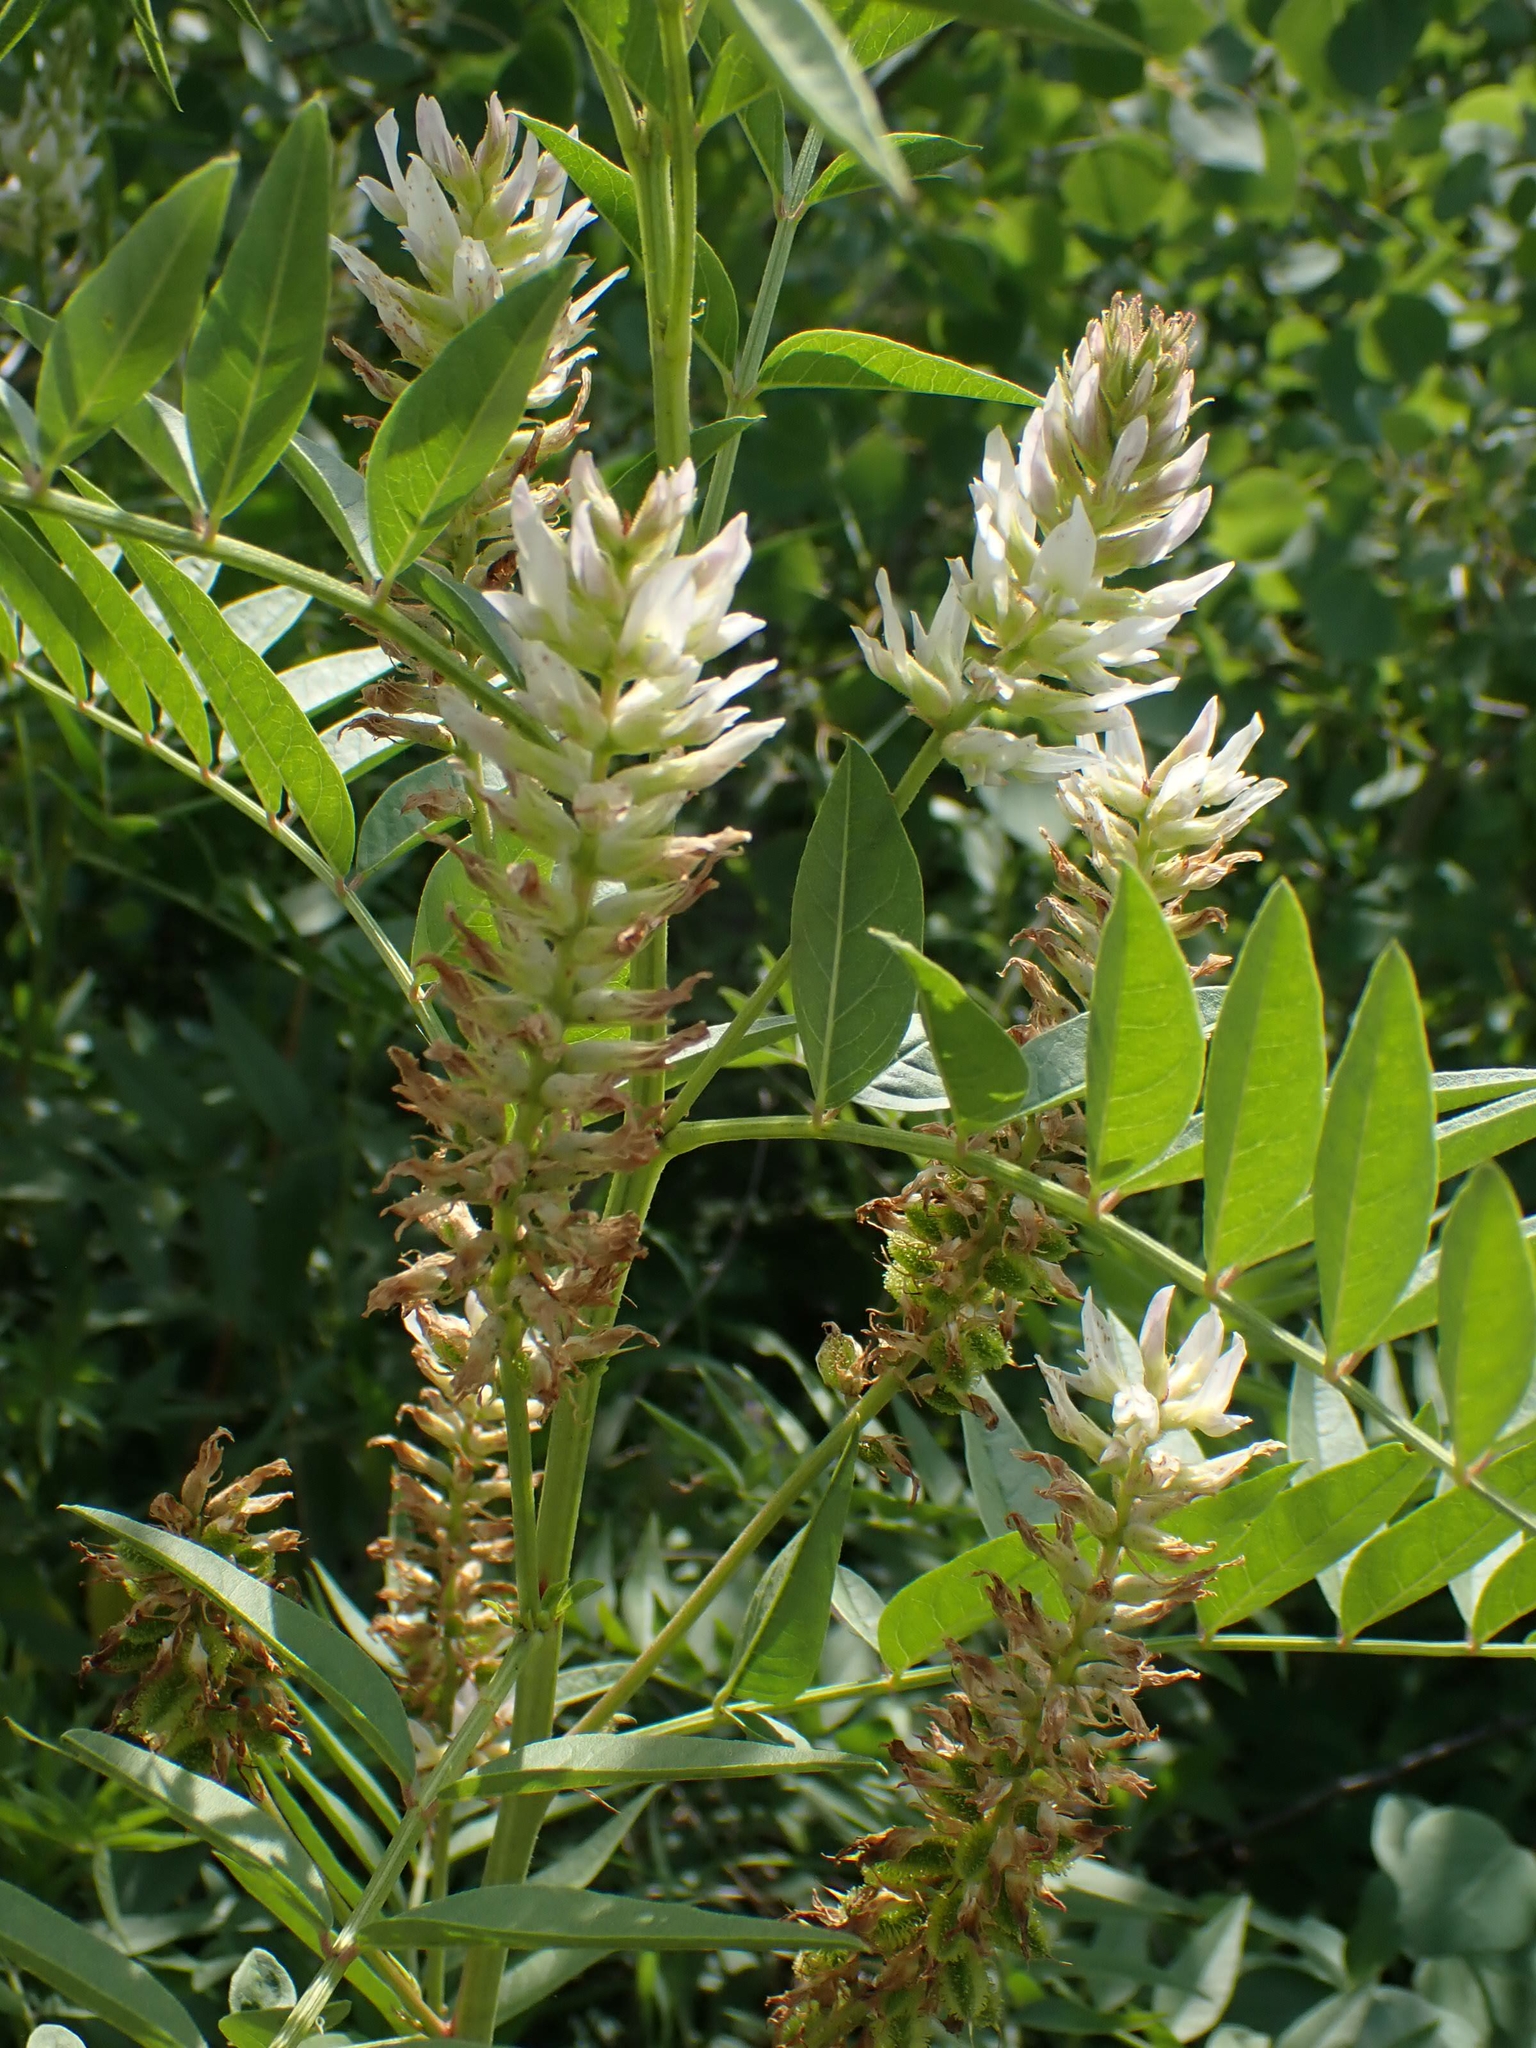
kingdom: Plantae
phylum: Tracheophyta
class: Magnoliopsida
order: Fabales
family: Fabaceae
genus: Glycyrrhiza
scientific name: Glycyrrhiza lepidota
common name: American liquorice
